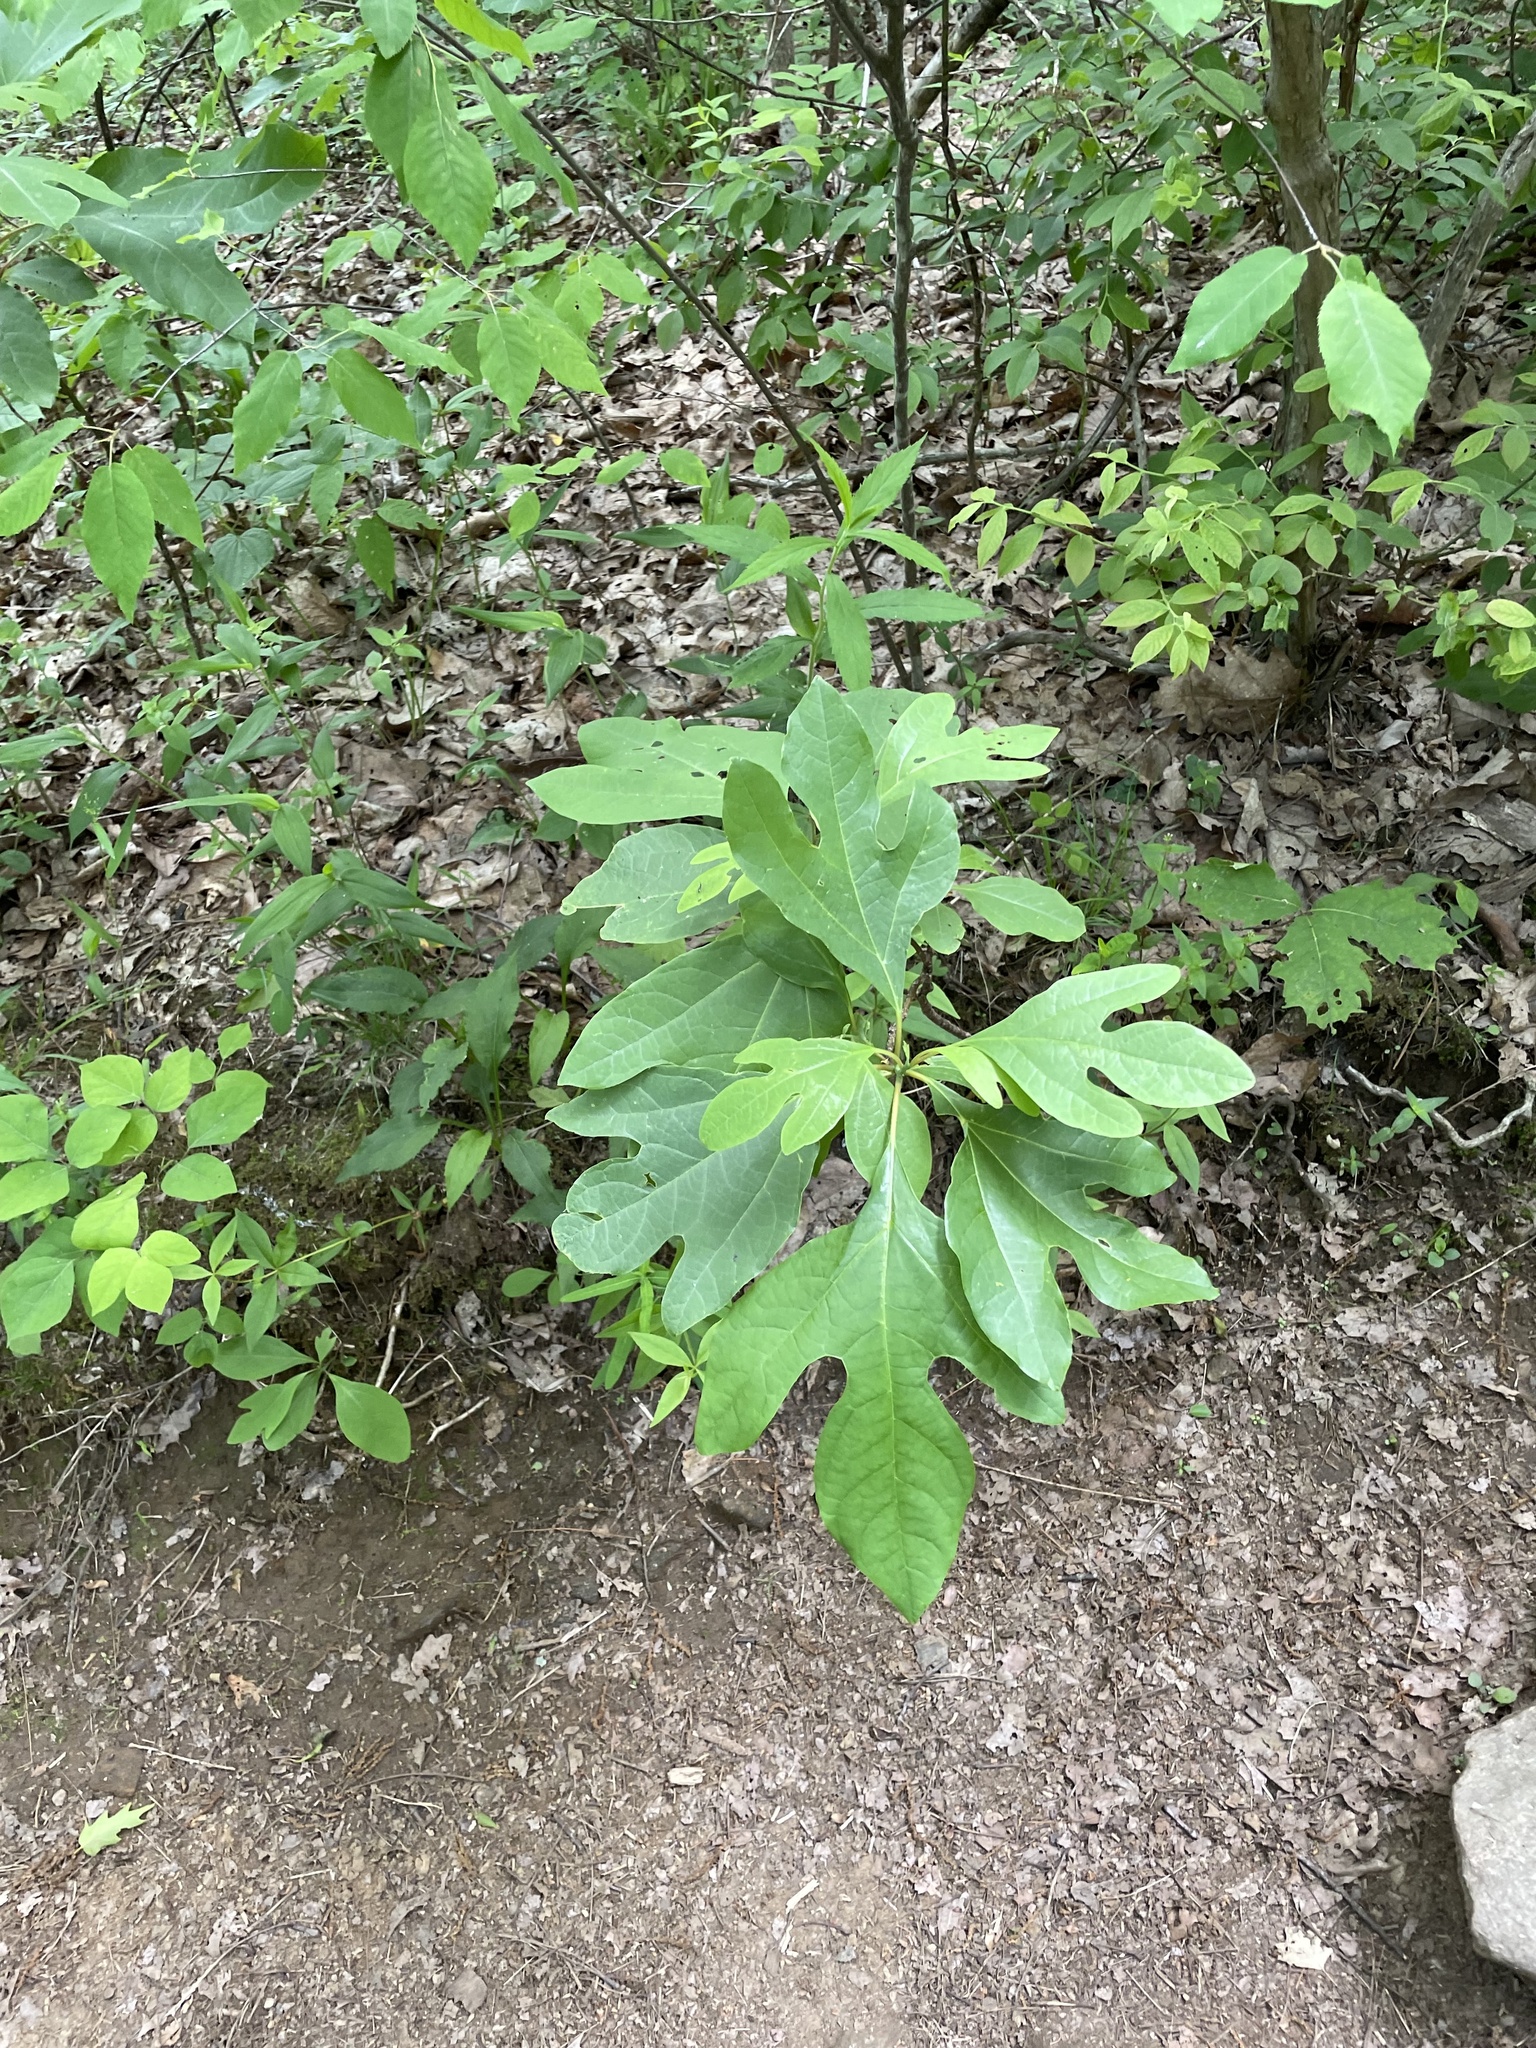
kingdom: Plantae
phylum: Tracheophyta
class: Magnoliopsida
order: Laurales
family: Lauraceae
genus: Sassafras
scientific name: Sassafras albidum
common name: Sassafras
